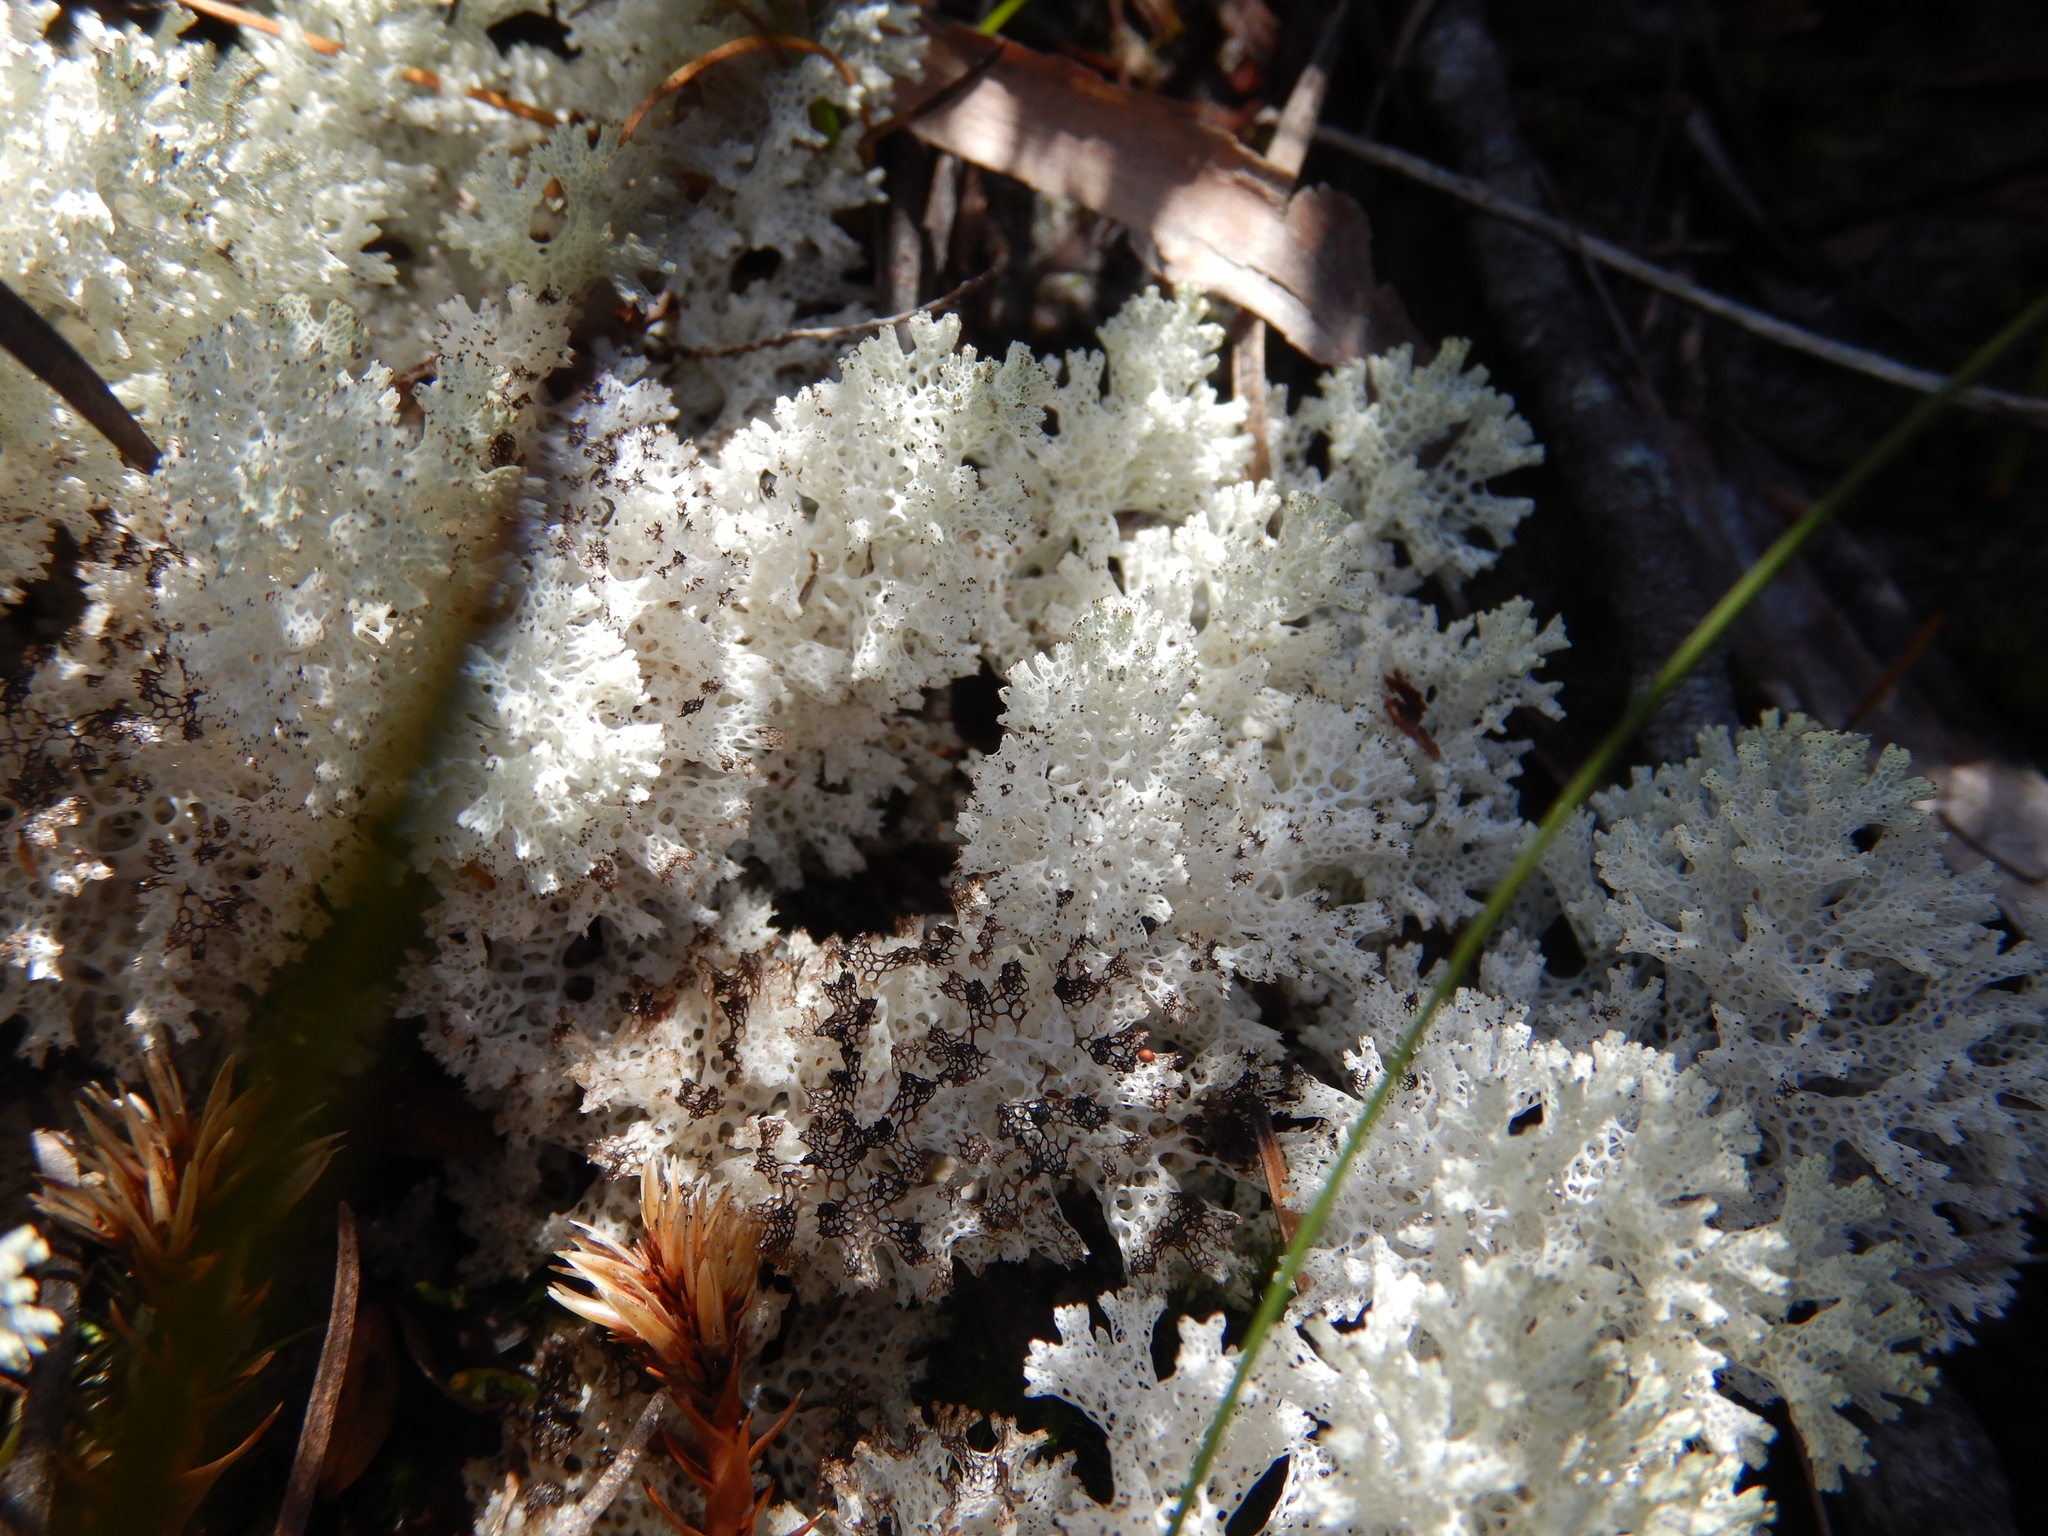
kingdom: Fungi
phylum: Ascomycota
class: Lecanoromycetes
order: Lecanorales
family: Cladoniaceae
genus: Pulchrocladia
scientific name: Pulchrocladia retipora
